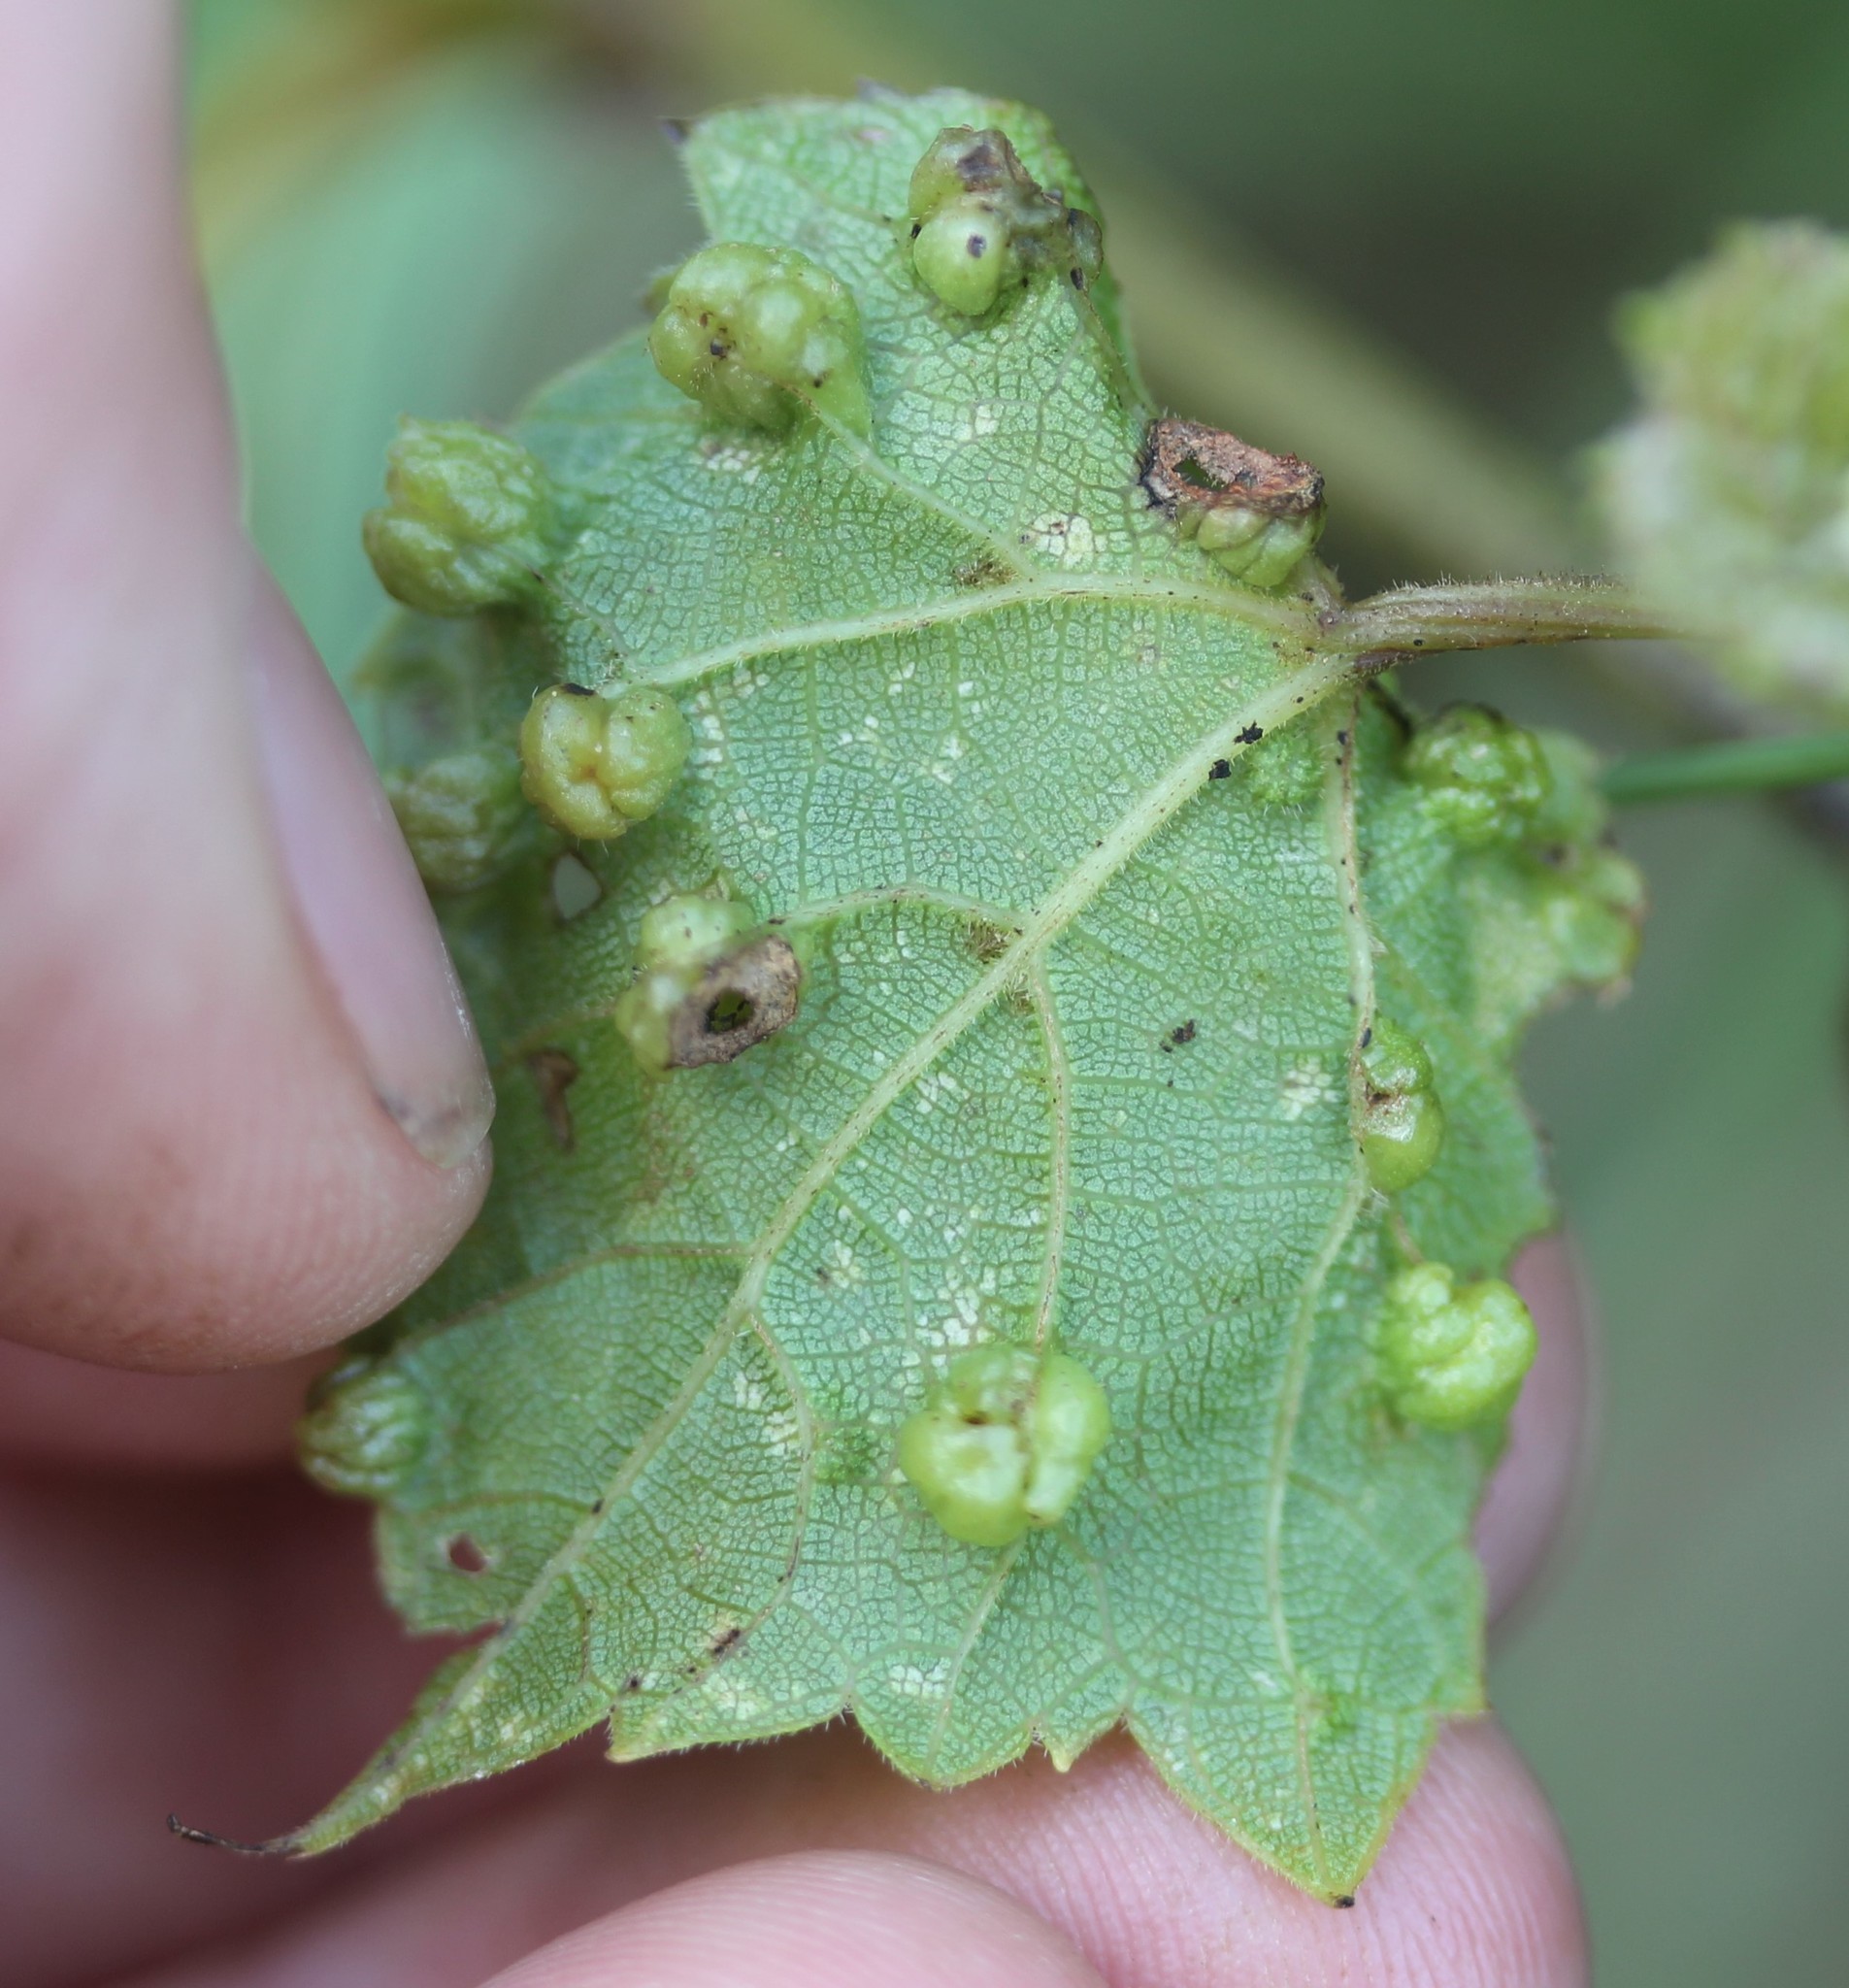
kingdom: Animalia
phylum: Arthropoda
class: Insecta
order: Hemiptera
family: Phylloxeridae
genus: Daktulosphaira
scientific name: Daktulosphaira vitifoliae
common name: Grape phylloxera
